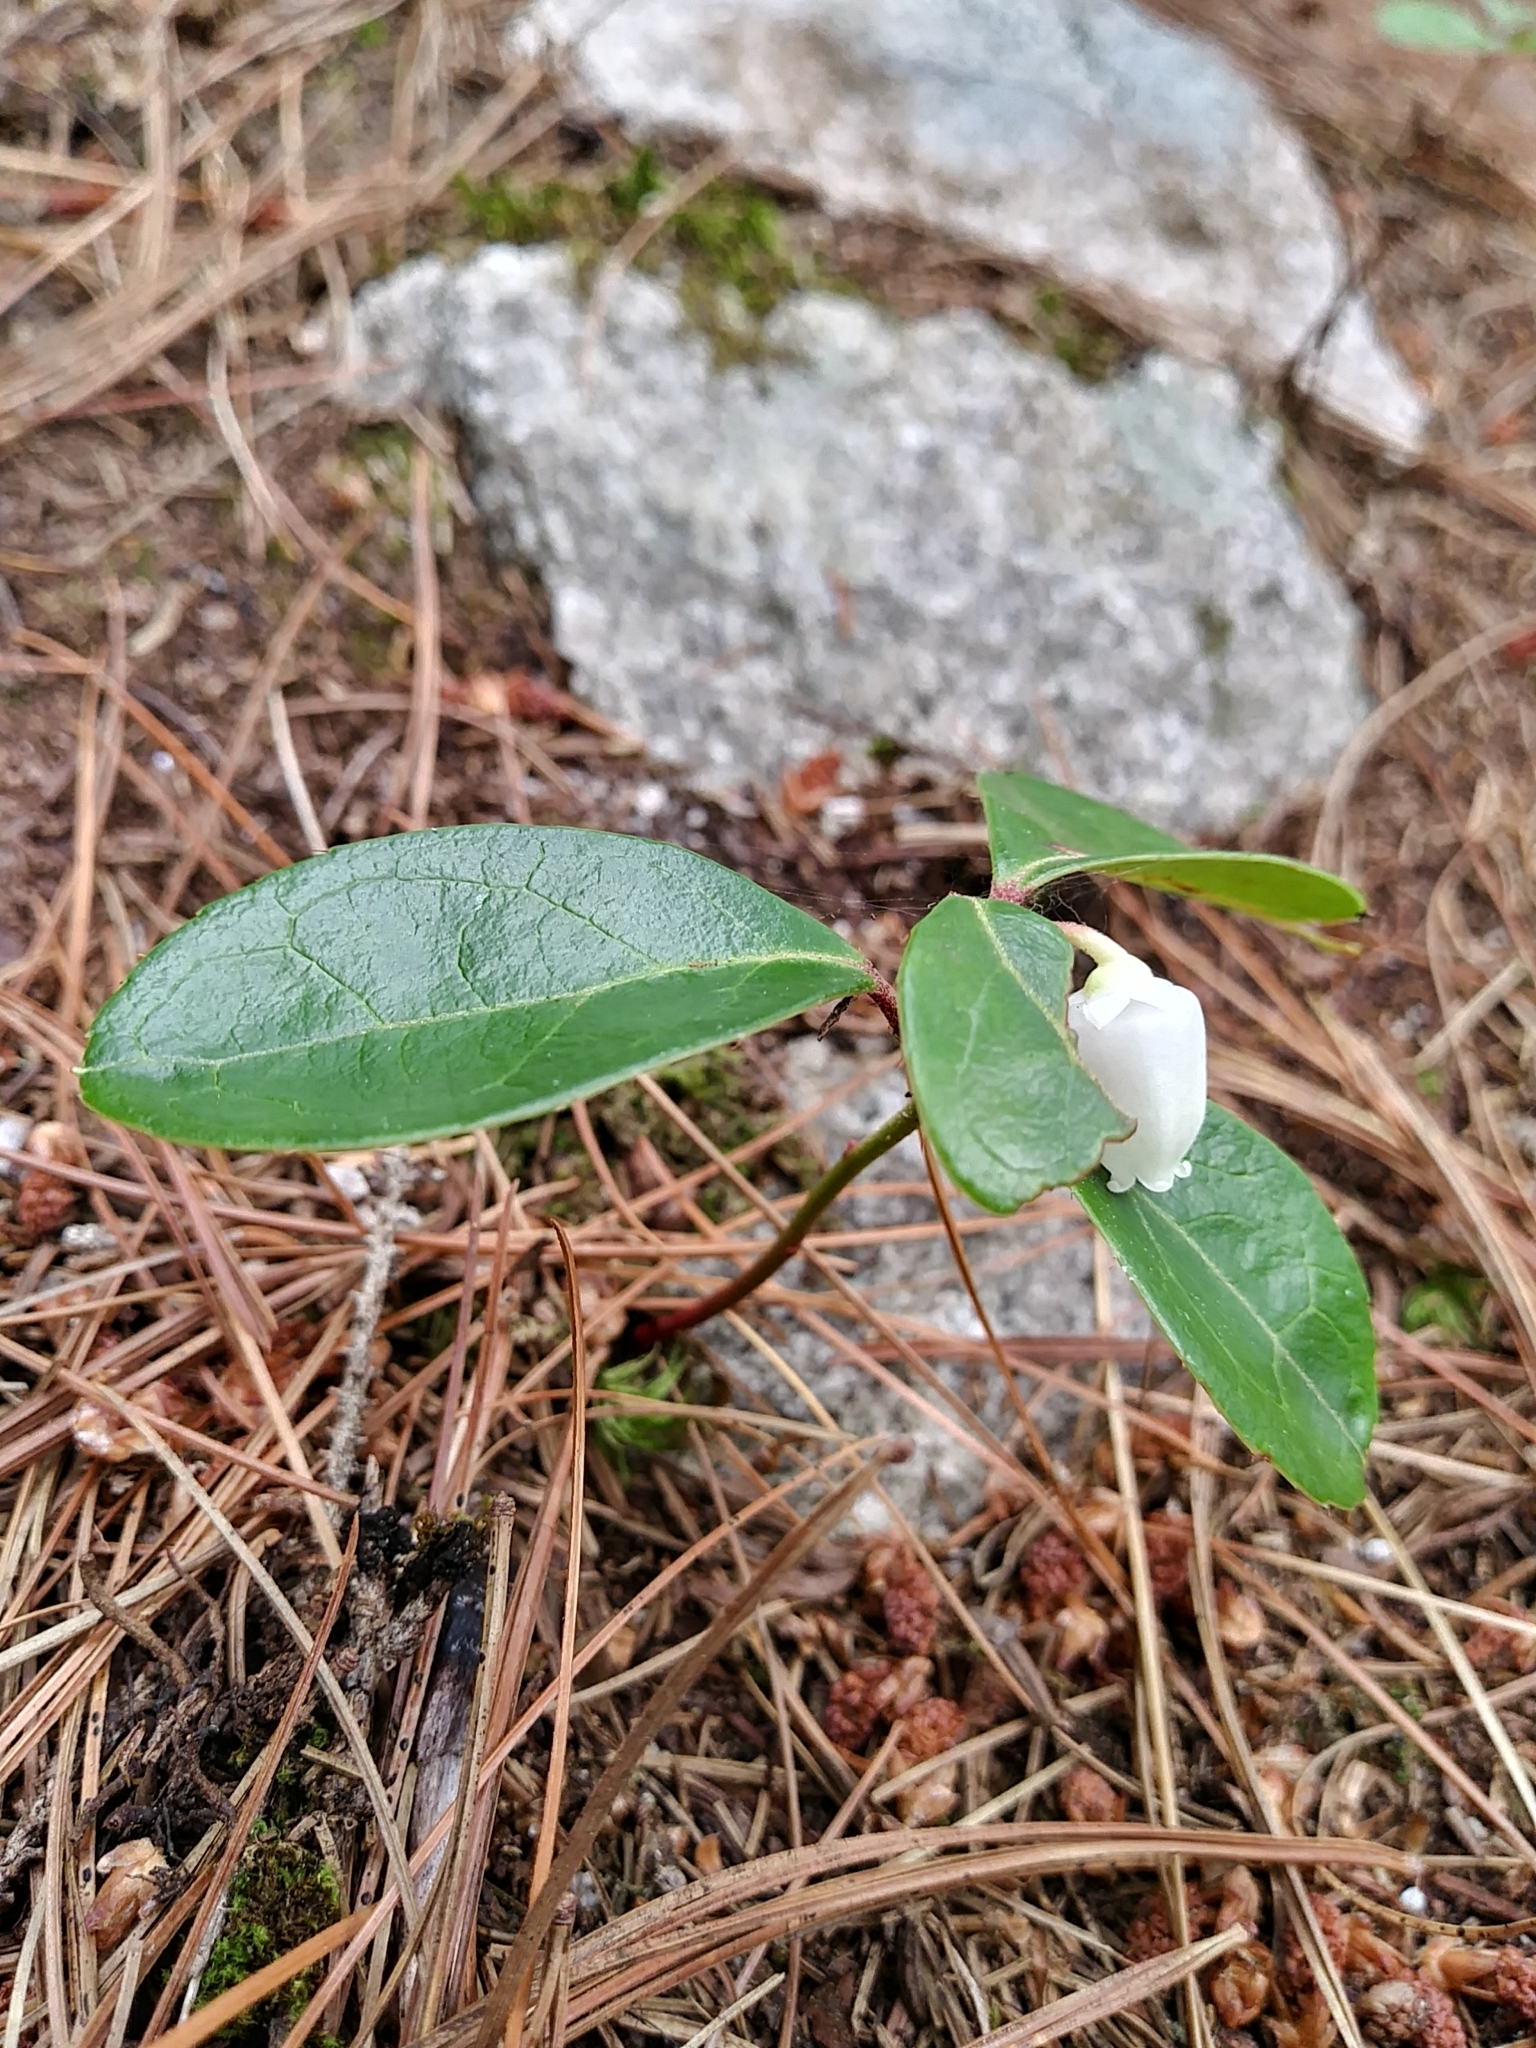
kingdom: Plantae
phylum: Tracheophyta
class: Magnoliopsida
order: Ericales
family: Ericaceae
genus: Gaultheria
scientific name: Gaultheria procumbens
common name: Checkerberry
